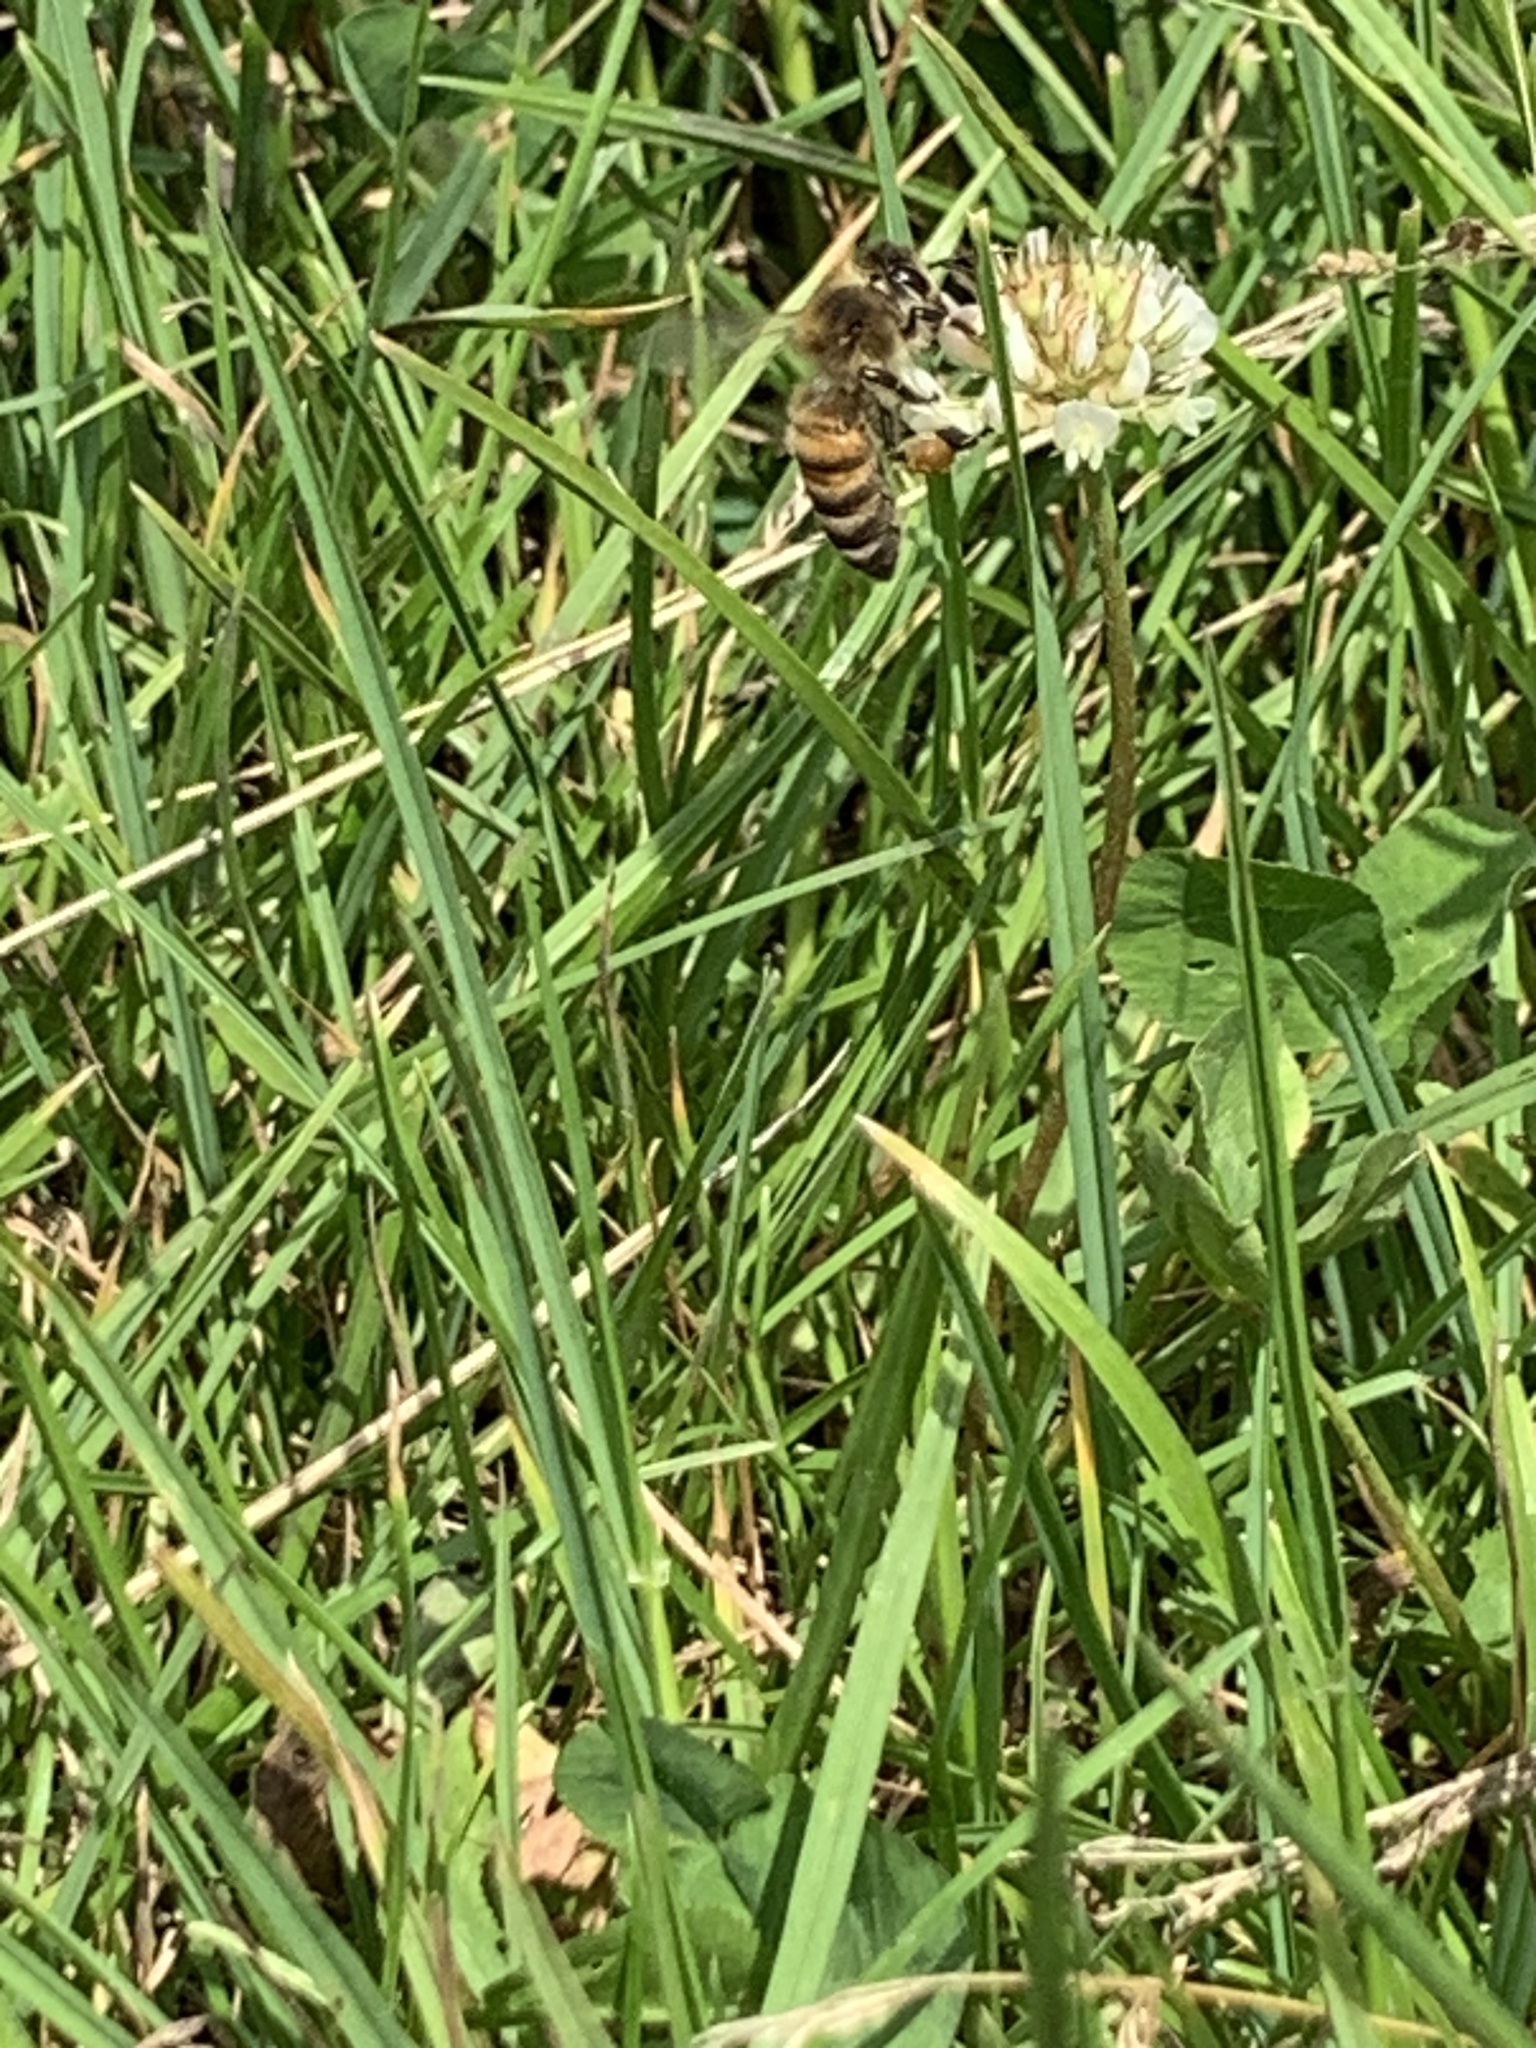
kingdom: Animalia
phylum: Arthropoda
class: Insecta
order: Hymenoptera
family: Apidae
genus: Apis
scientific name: Apis mellifera
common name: Honey bee
